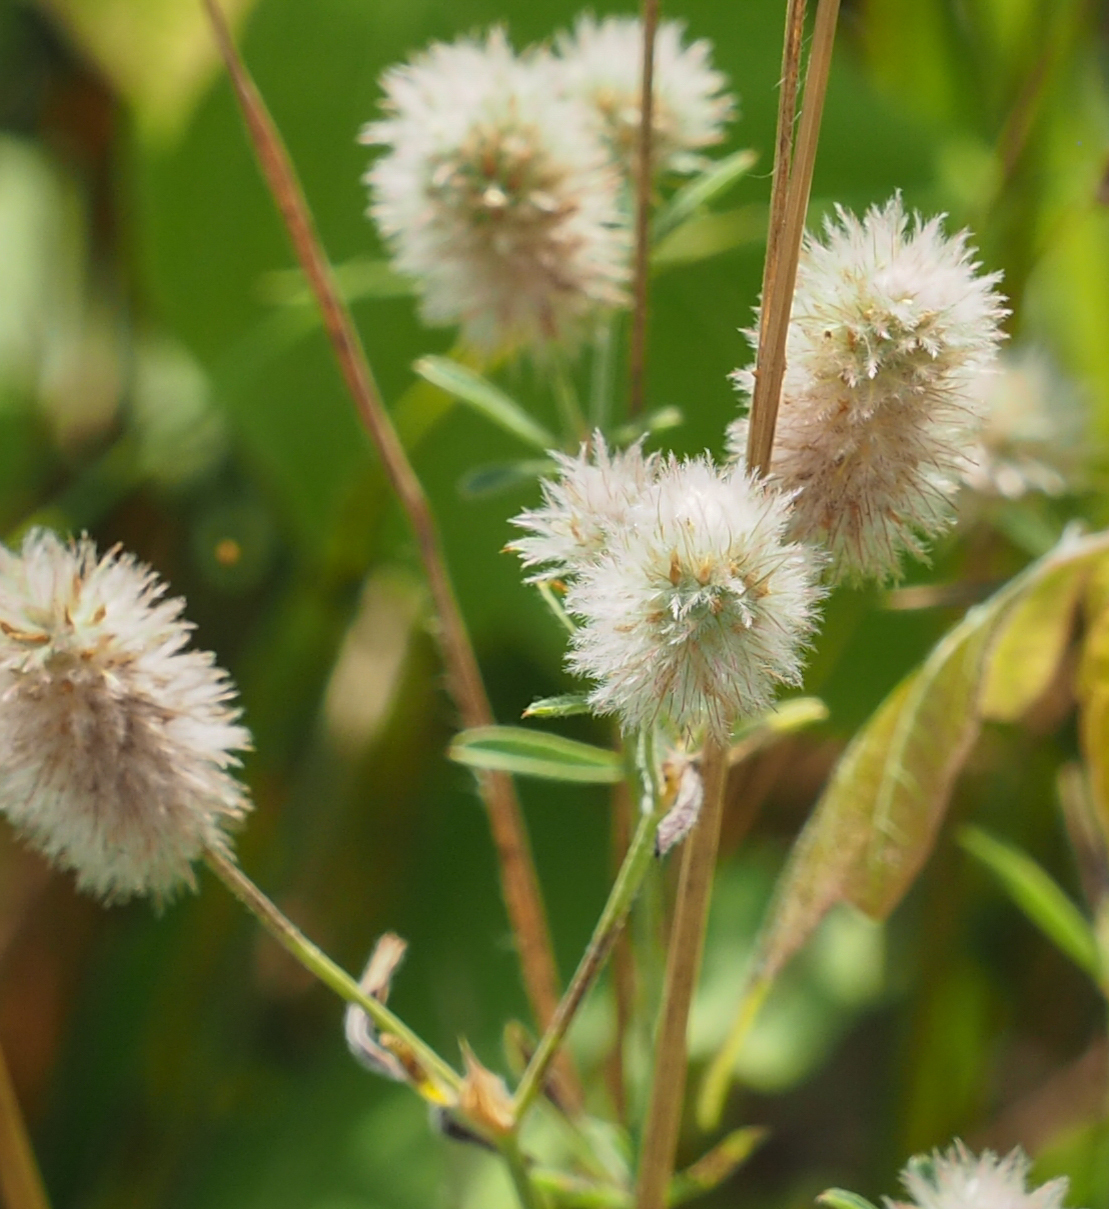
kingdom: Plantae
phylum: Tracheophyta
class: Magnoliopsida
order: Fabales
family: Fabaceae
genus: Trifolium
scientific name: Trifolium arvense
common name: Hare's-foot clover
